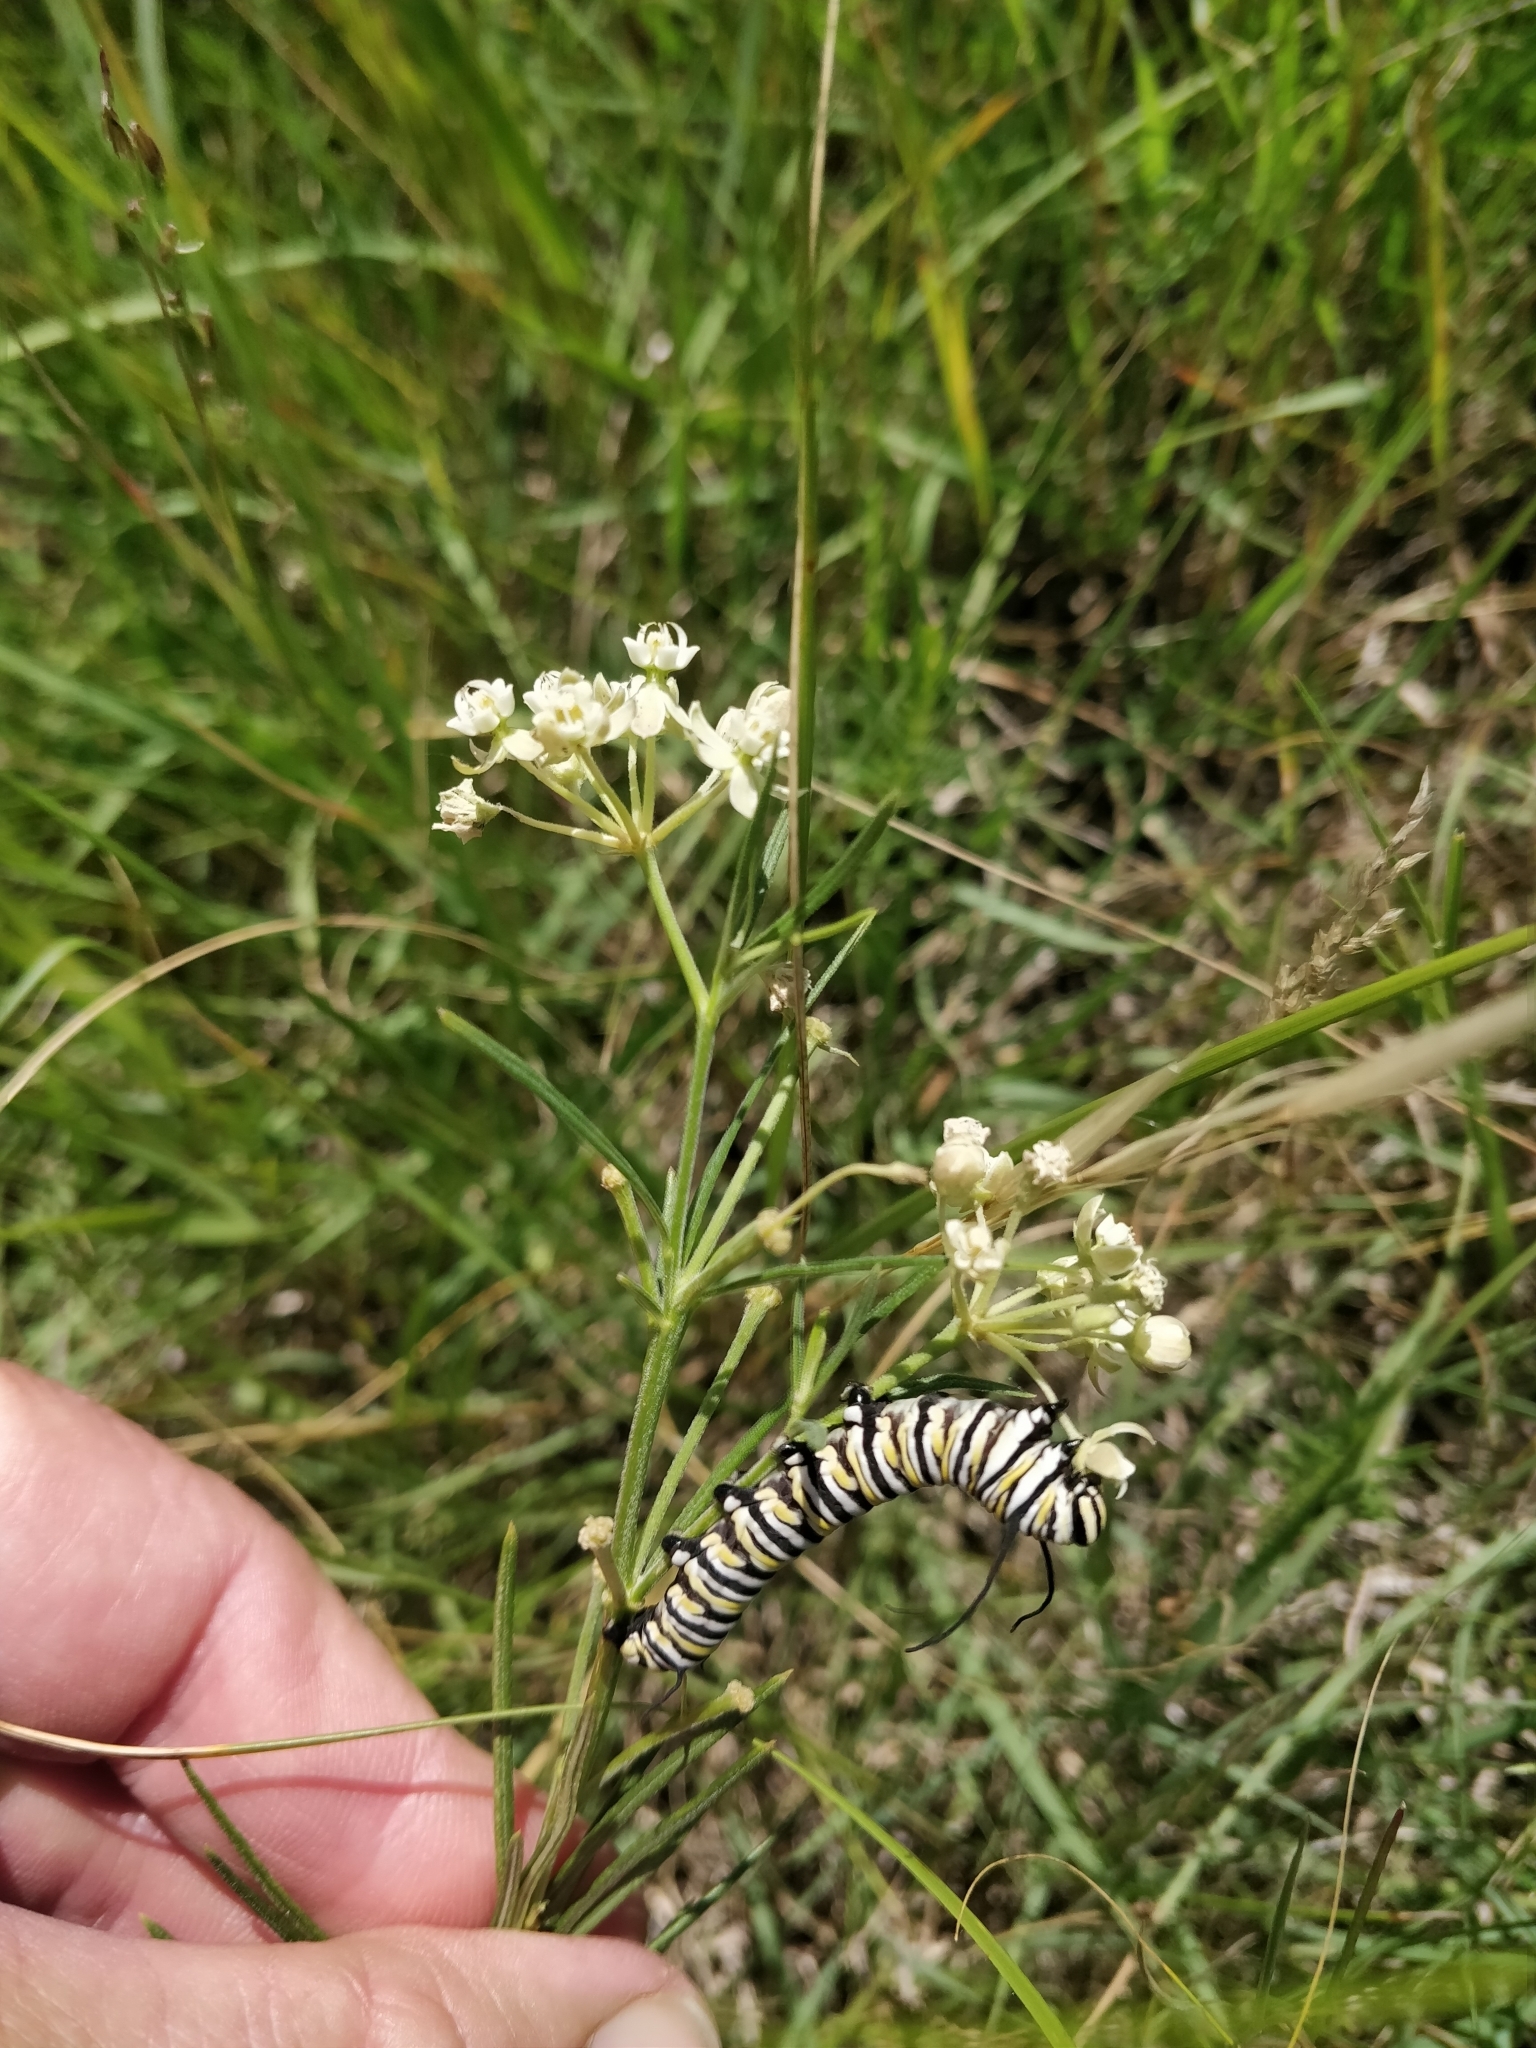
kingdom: Animalia
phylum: Arthropoda
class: Insecta
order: Lepidoptera
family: Nymphalidae
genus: Danaus
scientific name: Danaus plexippus
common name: Monarch
